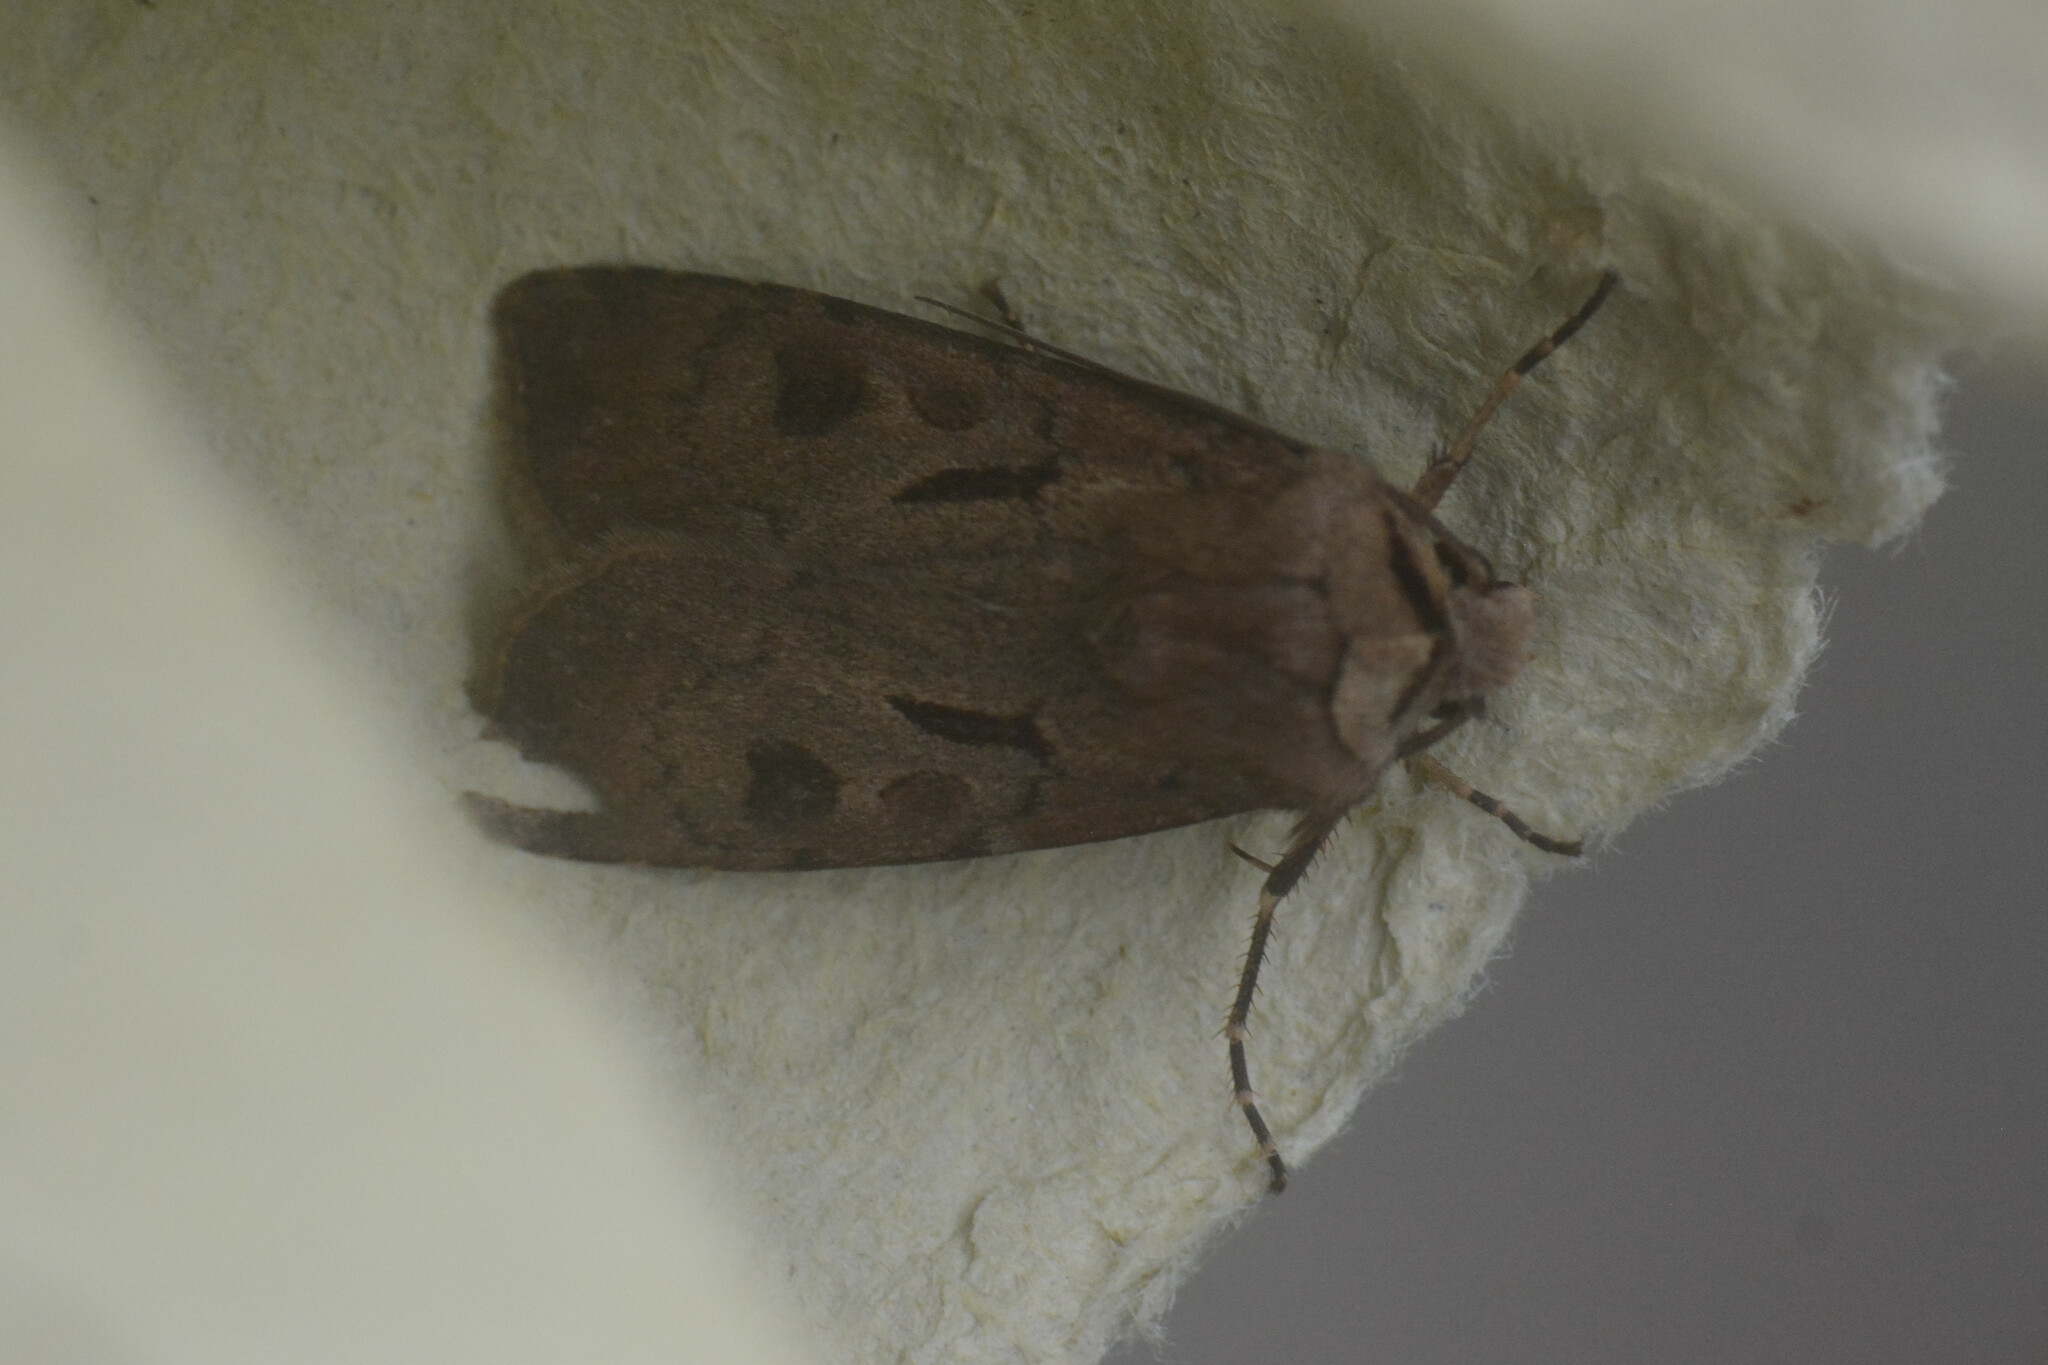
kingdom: Animalia
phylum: Arthropoda
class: Insecta
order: Lepidoptera
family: Noctuidae
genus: Agrotis
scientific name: Agrotis exclamationis
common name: Heart and dart
